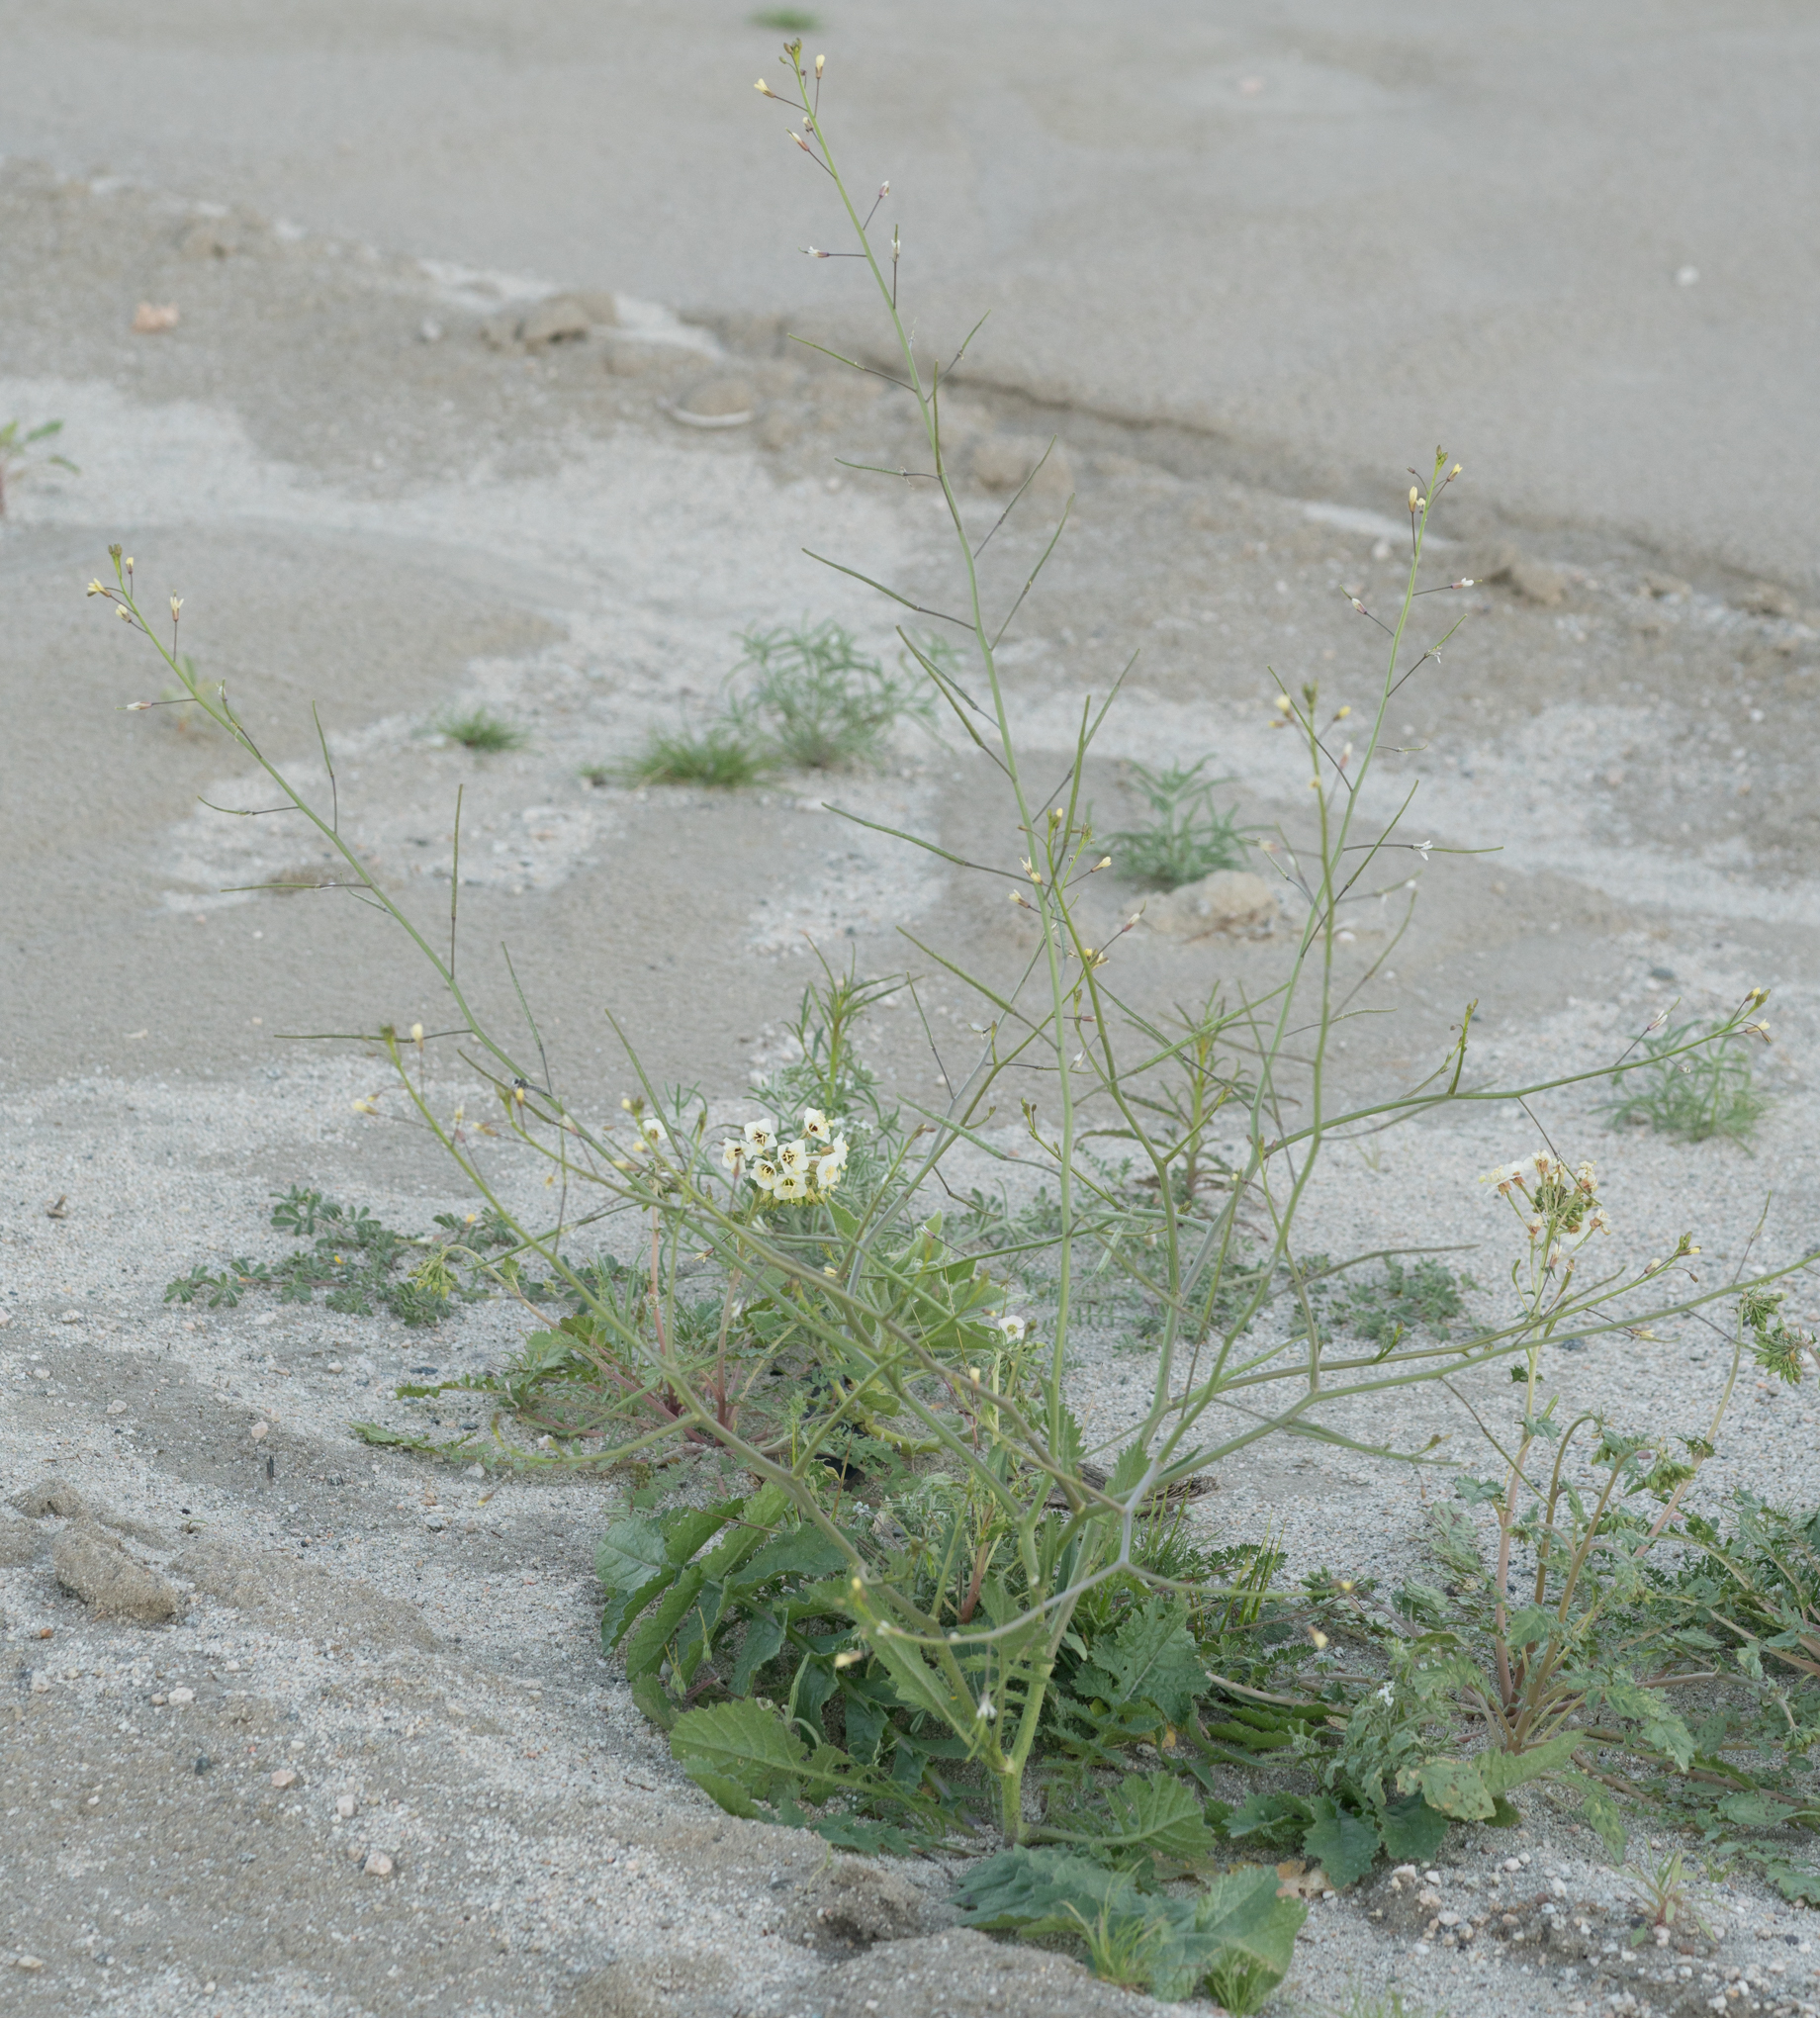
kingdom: Plantae
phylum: Tracheophyta
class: Magnoliopsida
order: Brassicales
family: Brassicaceae
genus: Brassica
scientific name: Brassica tournefortii
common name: Pale cabbage
